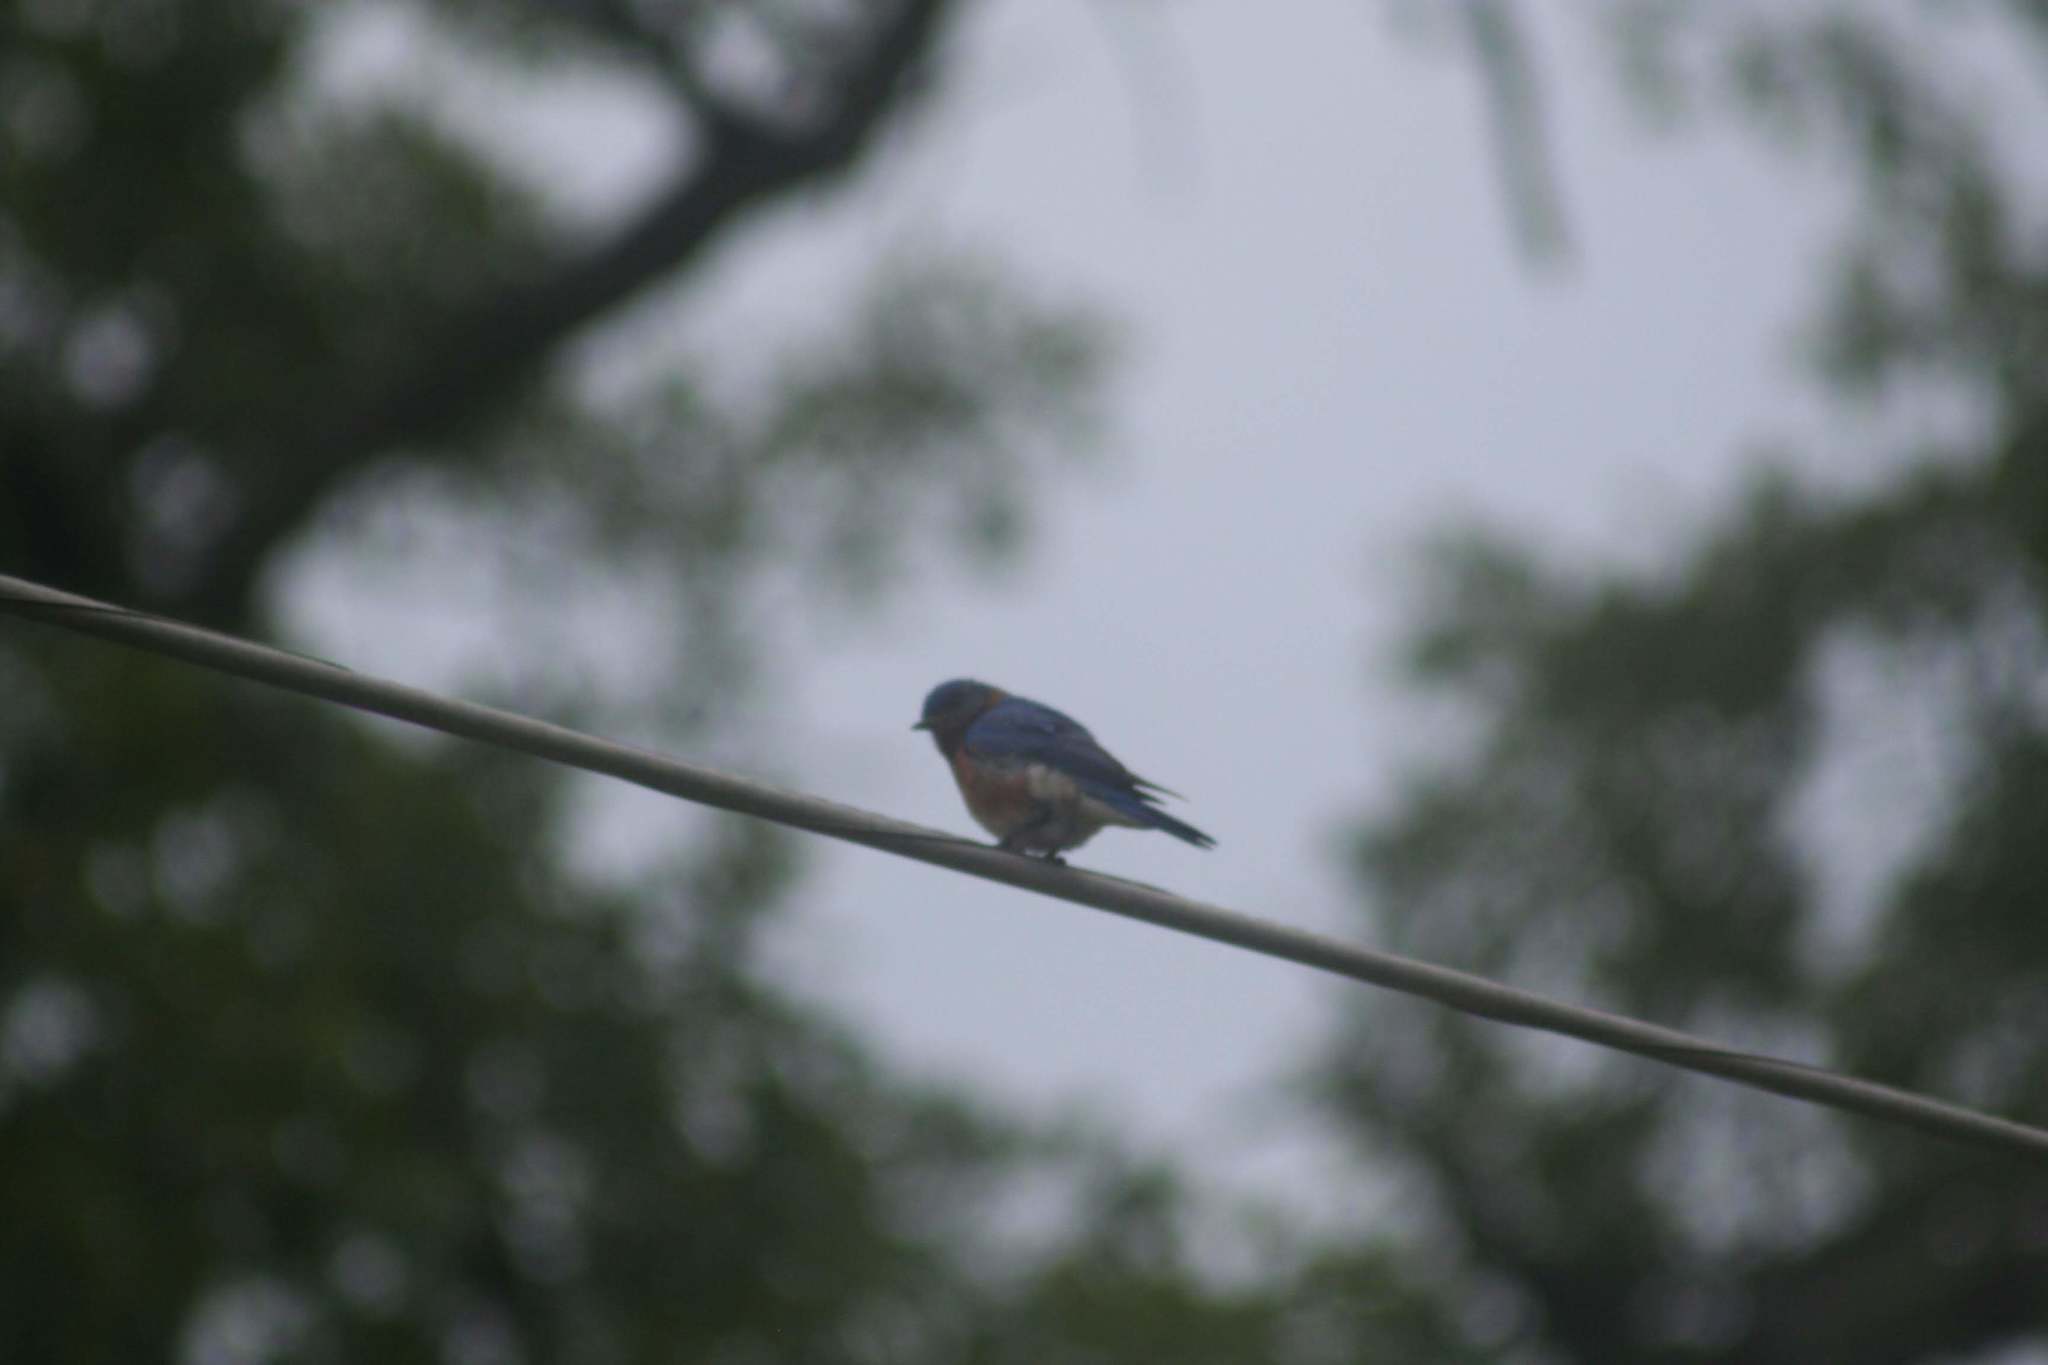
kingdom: Animalia
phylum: Chordata
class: Aves
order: Passeriformes
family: Turdidae
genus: Sialia
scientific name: Sialia sialis
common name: Eastern bluebird
